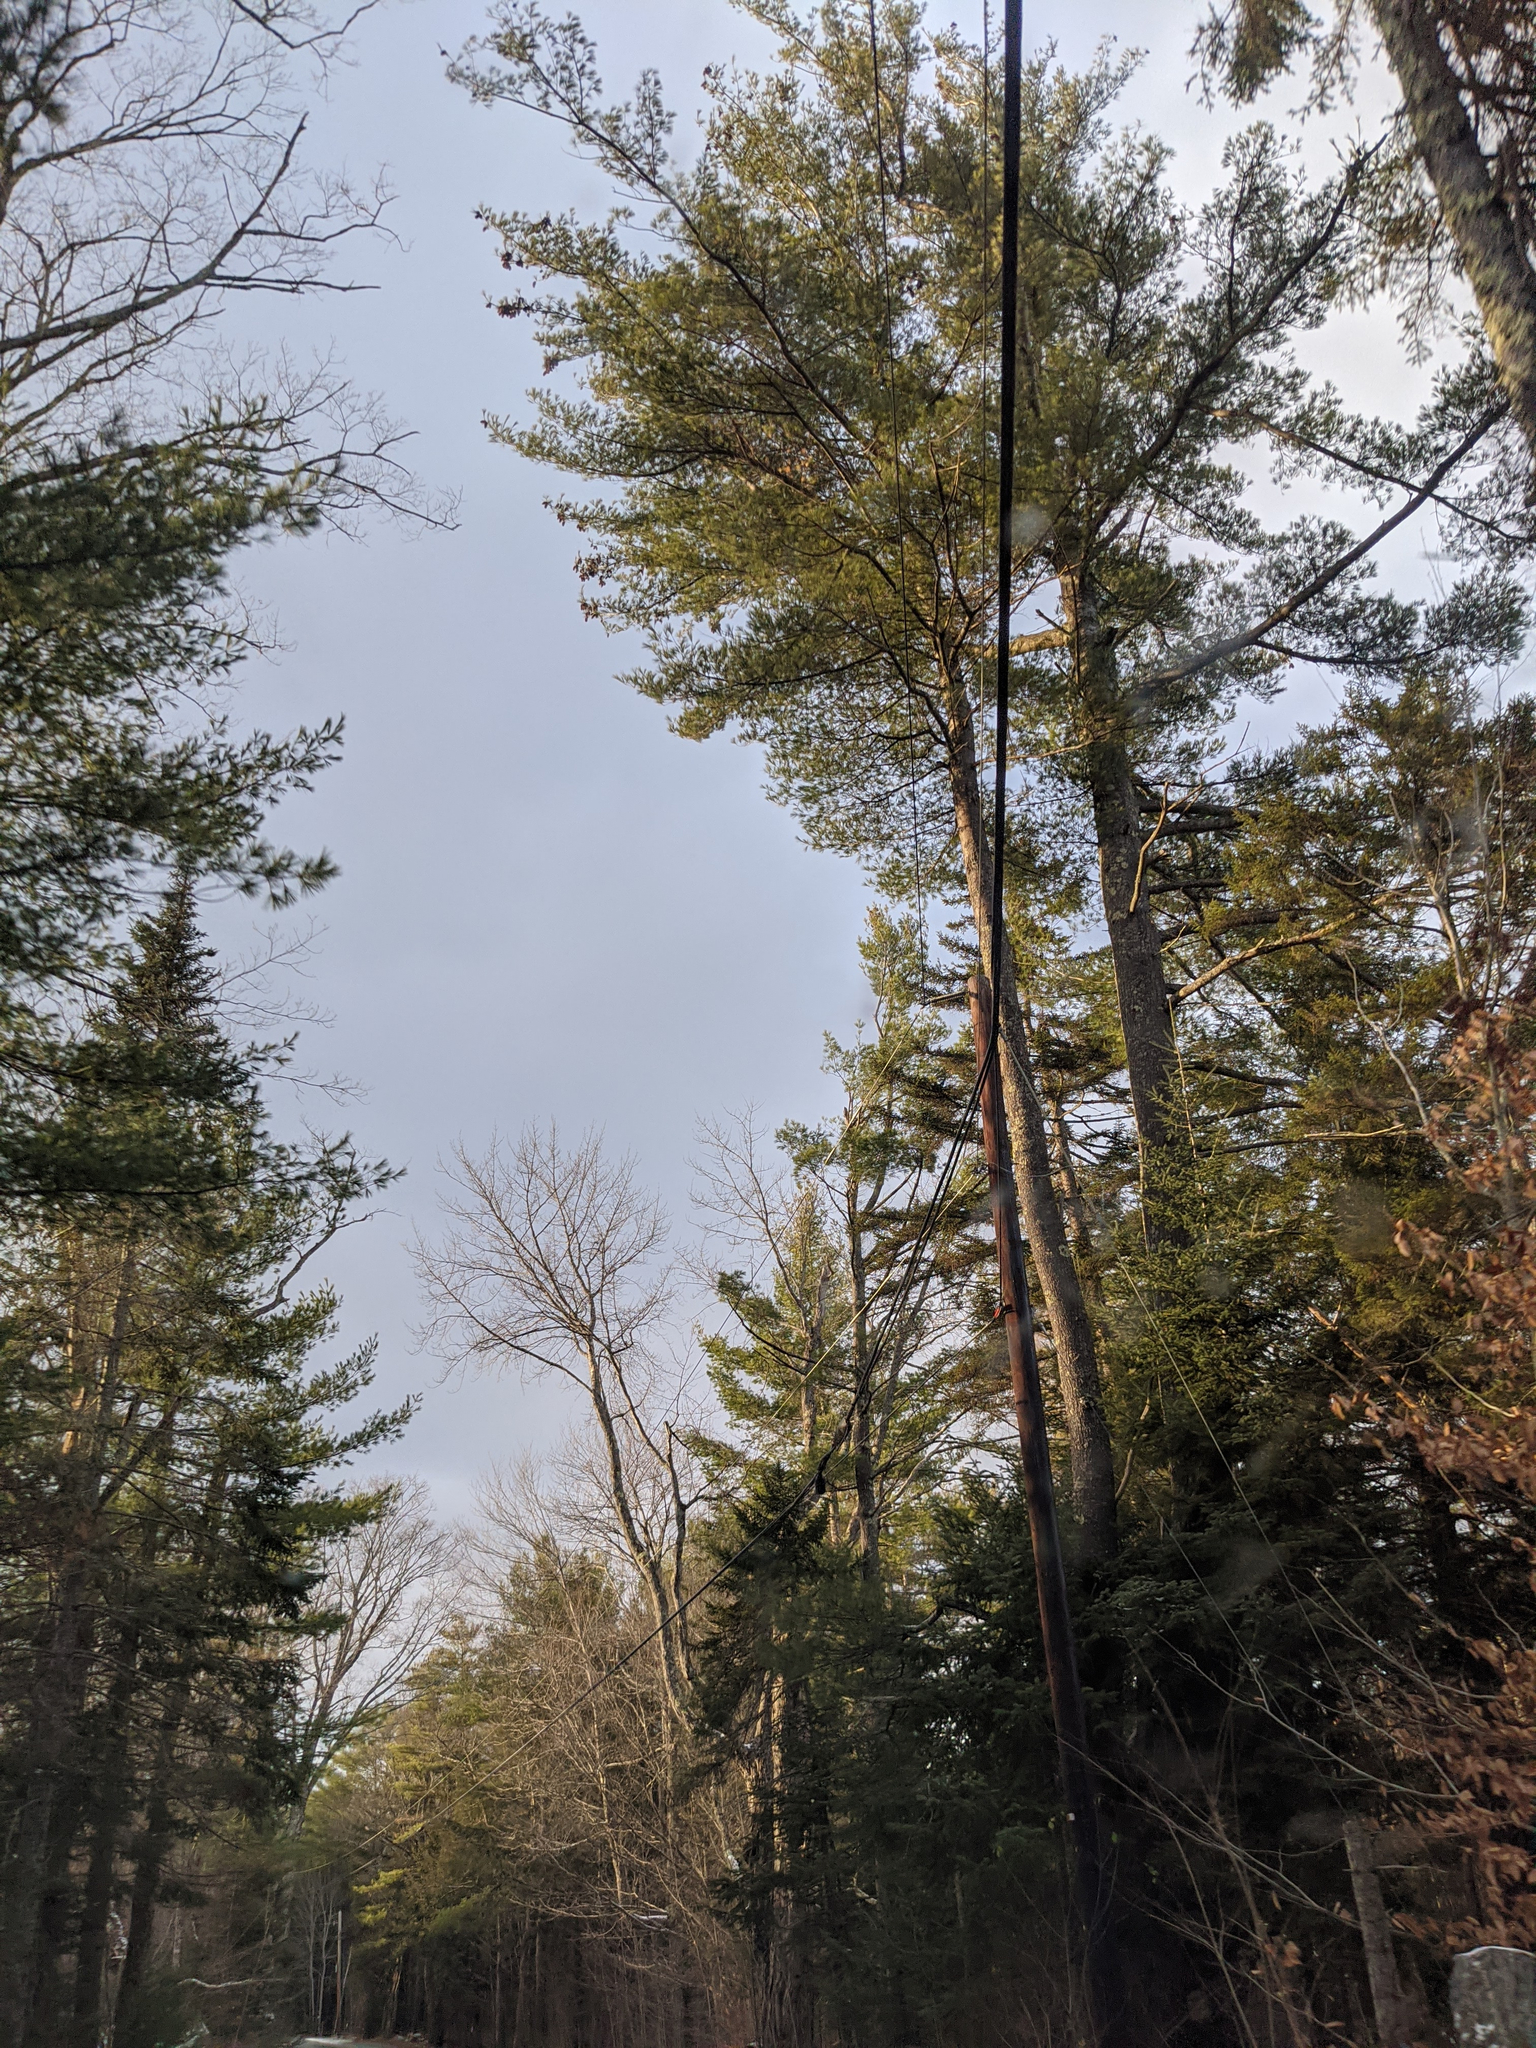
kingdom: Plantae
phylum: Tracheophyta
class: Pinopsida
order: Pinales
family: Pinaceae
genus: Pinus
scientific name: Pinus strobus
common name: Weymouth pine
